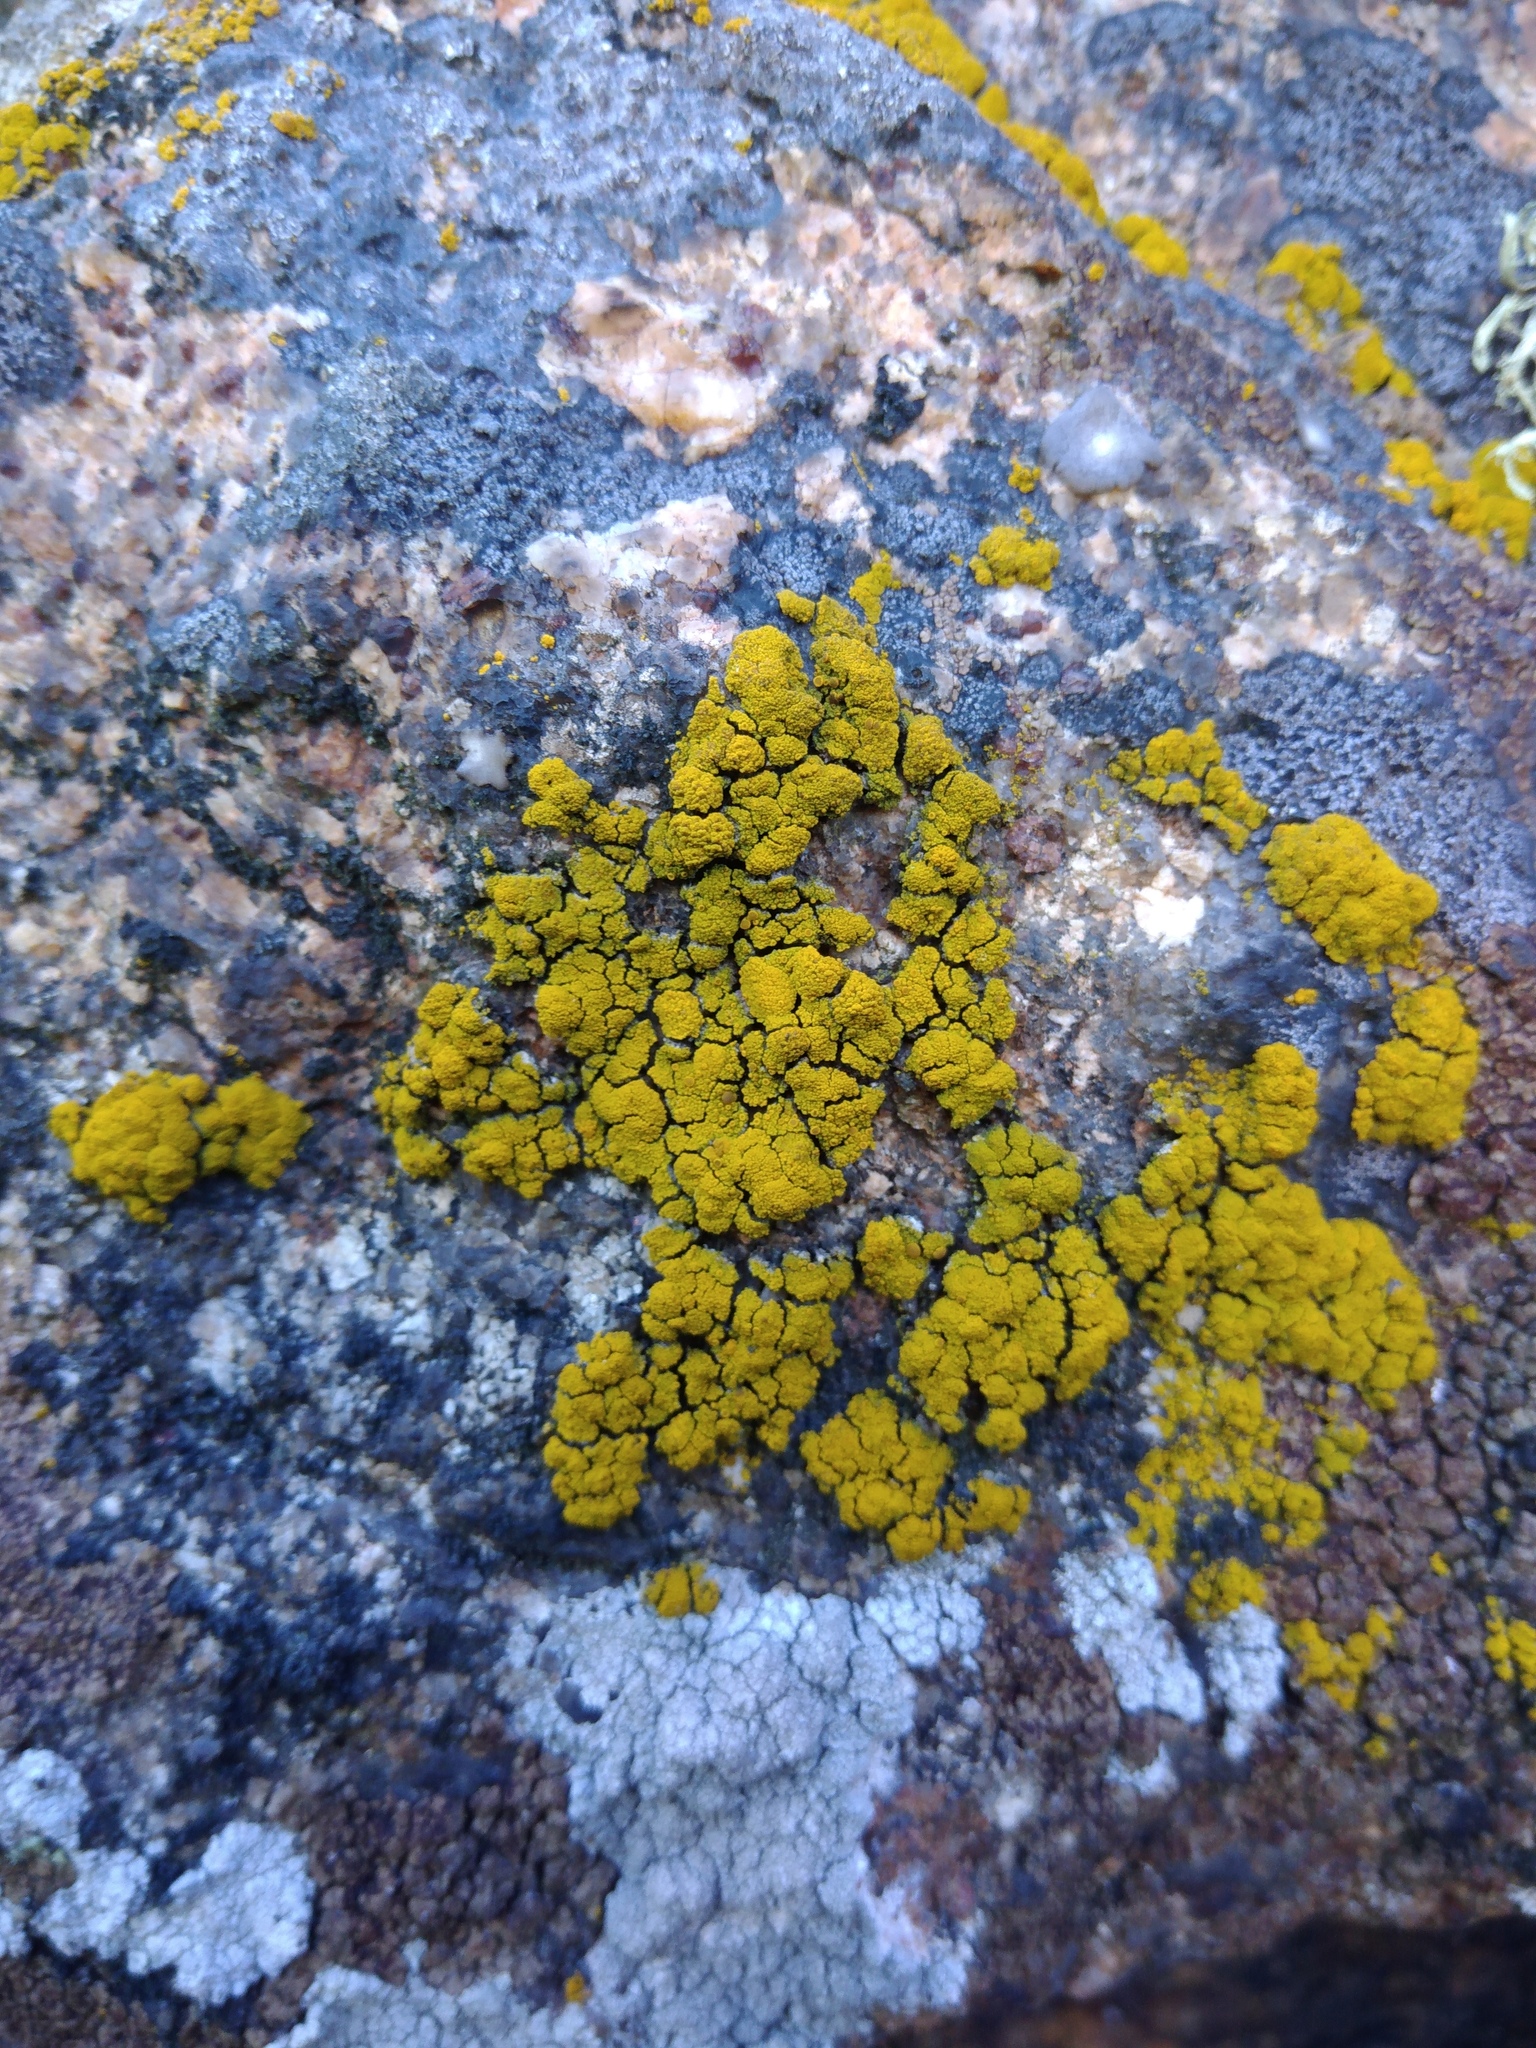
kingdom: Fungi
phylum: Ascomycota
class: Candelariomycetes
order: Candelariales
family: Candelariaceae
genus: Candelariella
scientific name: Candelariella vitellina
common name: Common goldspeck
